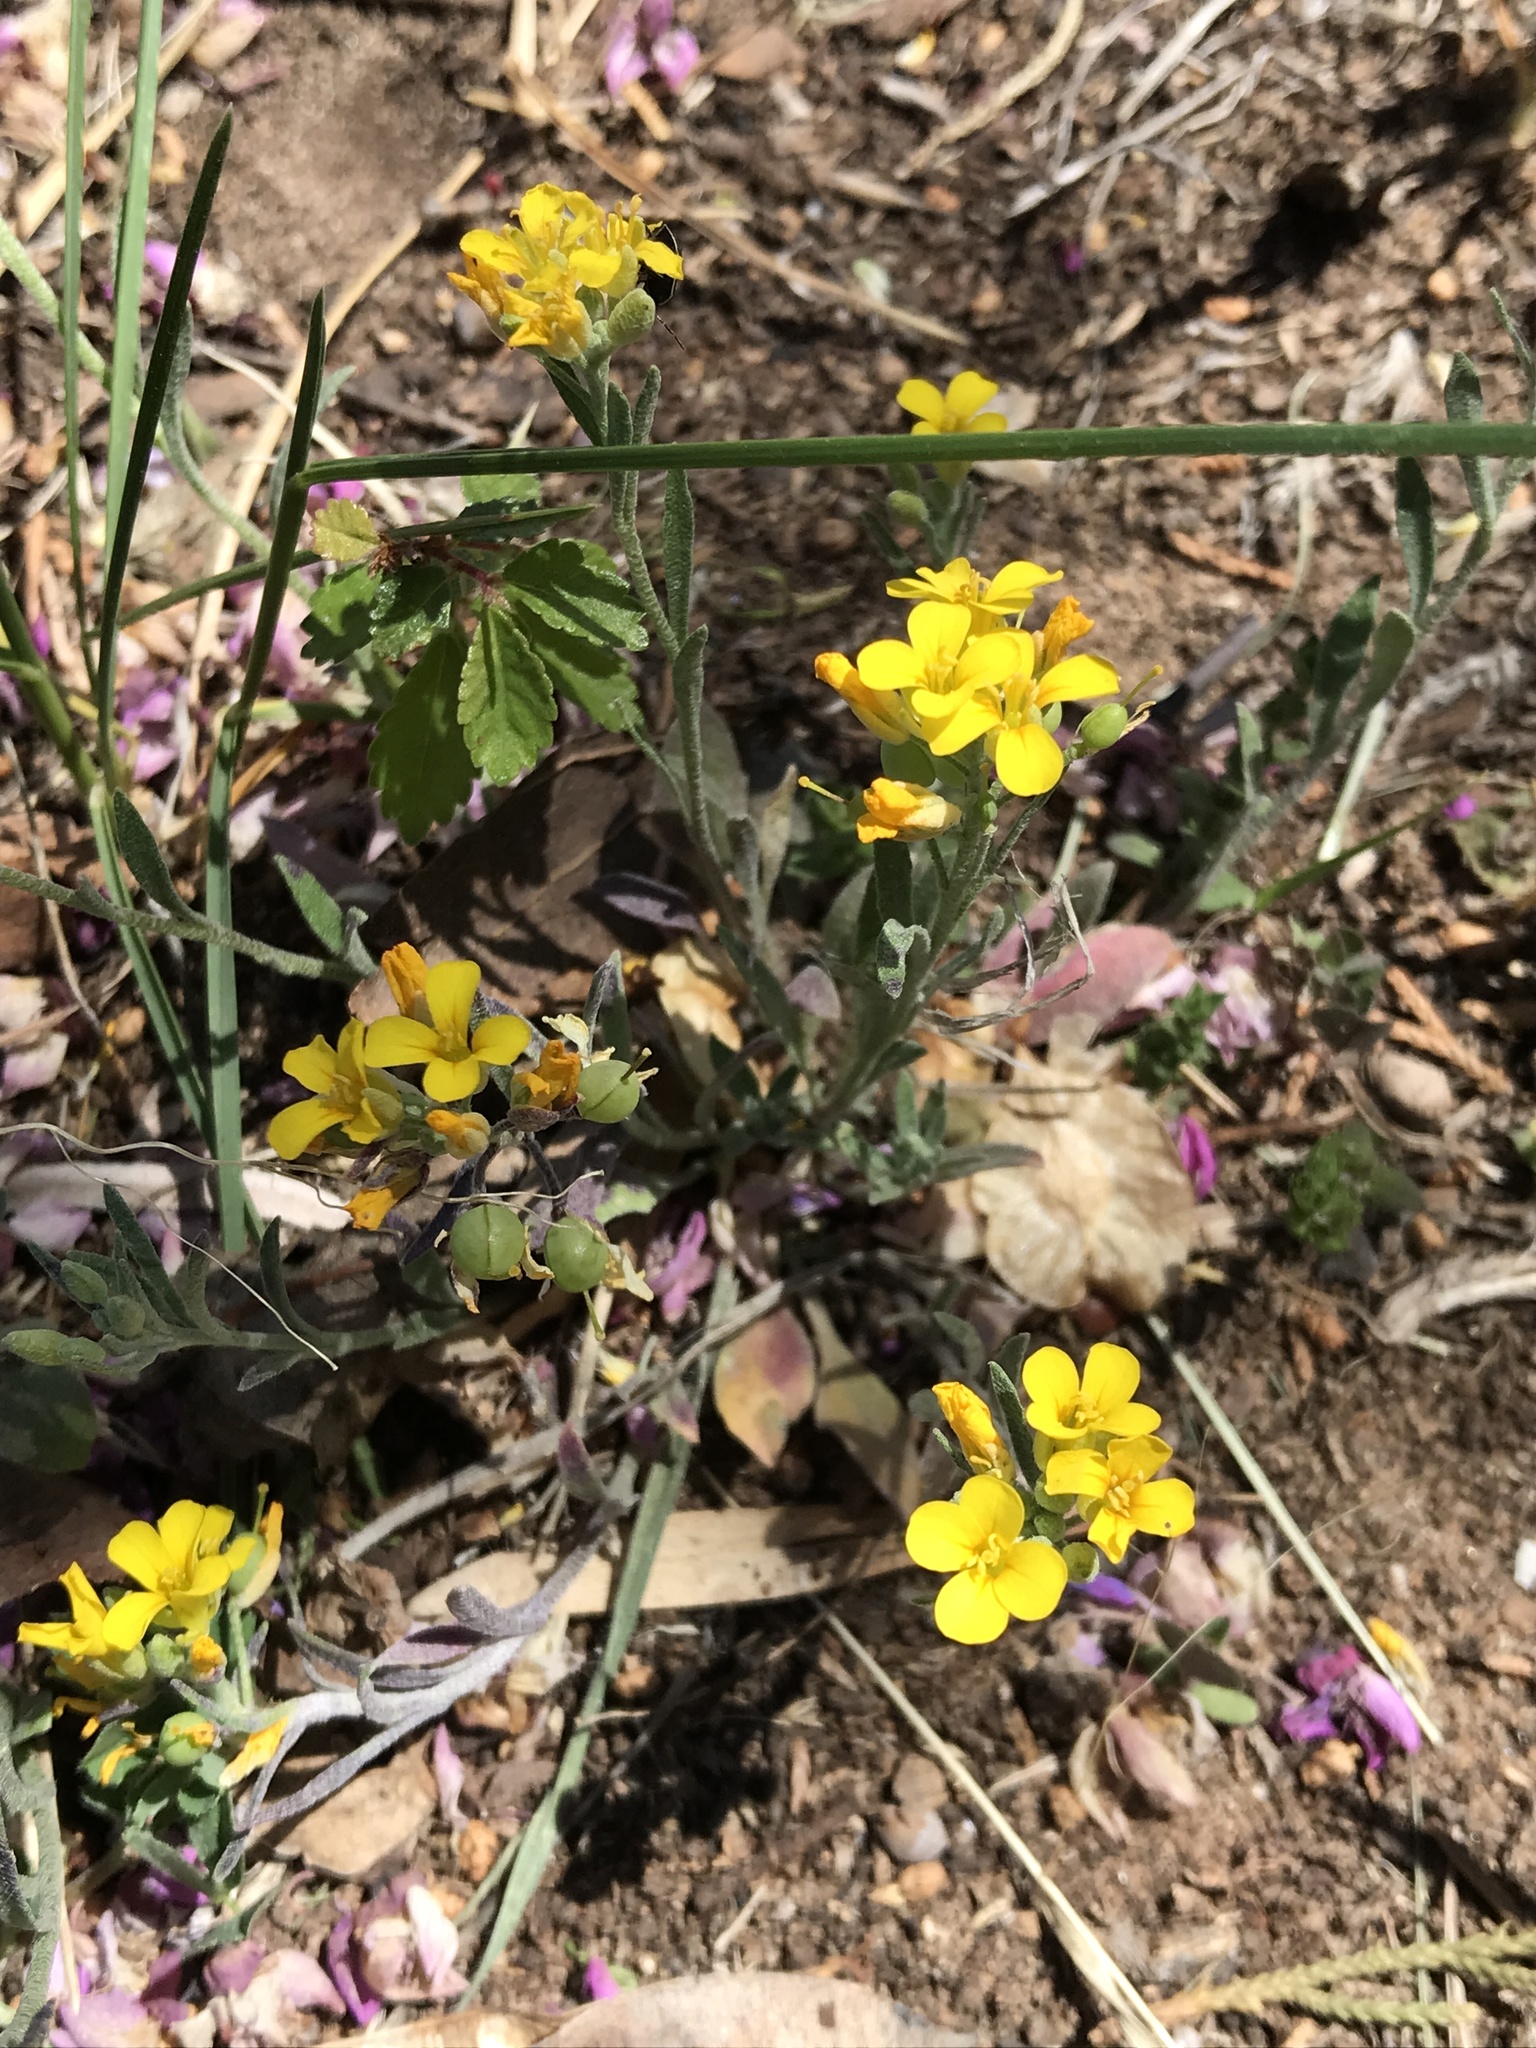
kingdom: Plantae
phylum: Tracheophyta
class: Magnoliopsida
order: Brassicales
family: Brassicaceae
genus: Physaria
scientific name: Physaria gordonii
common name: Gordon's bladderpod
